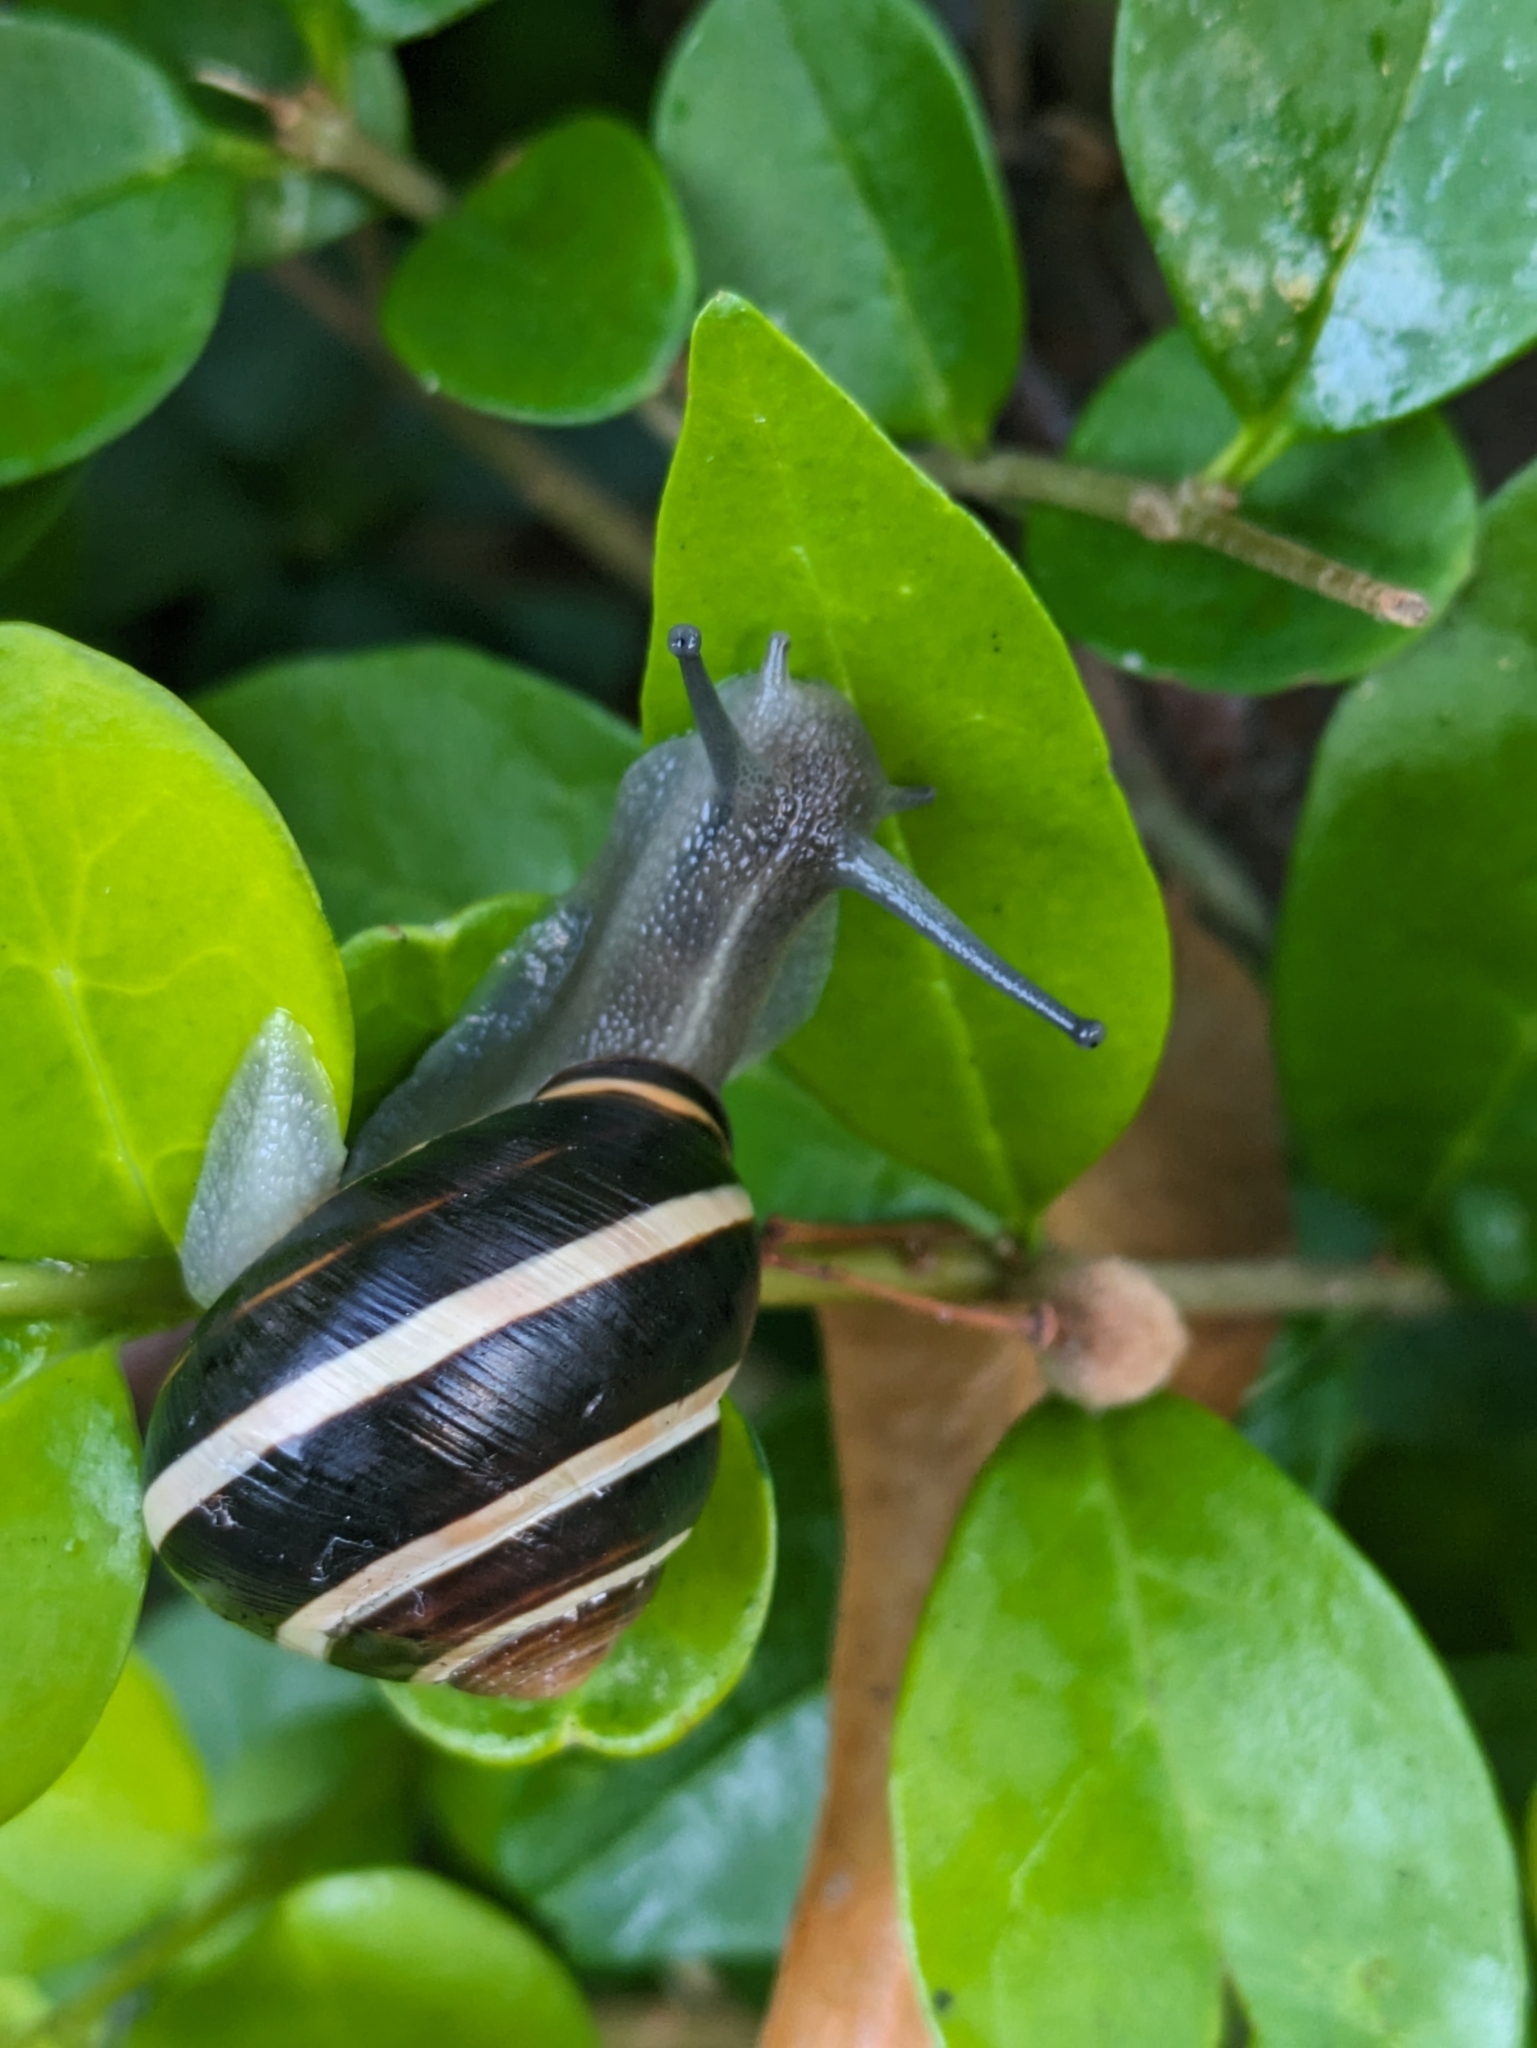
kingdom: Animalia
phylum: Mollusca
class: Gastropoda
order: Stylommatophora
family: Helicidae
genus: Cepaea
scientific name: Cepaea nemoralis
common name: Grovesnail
